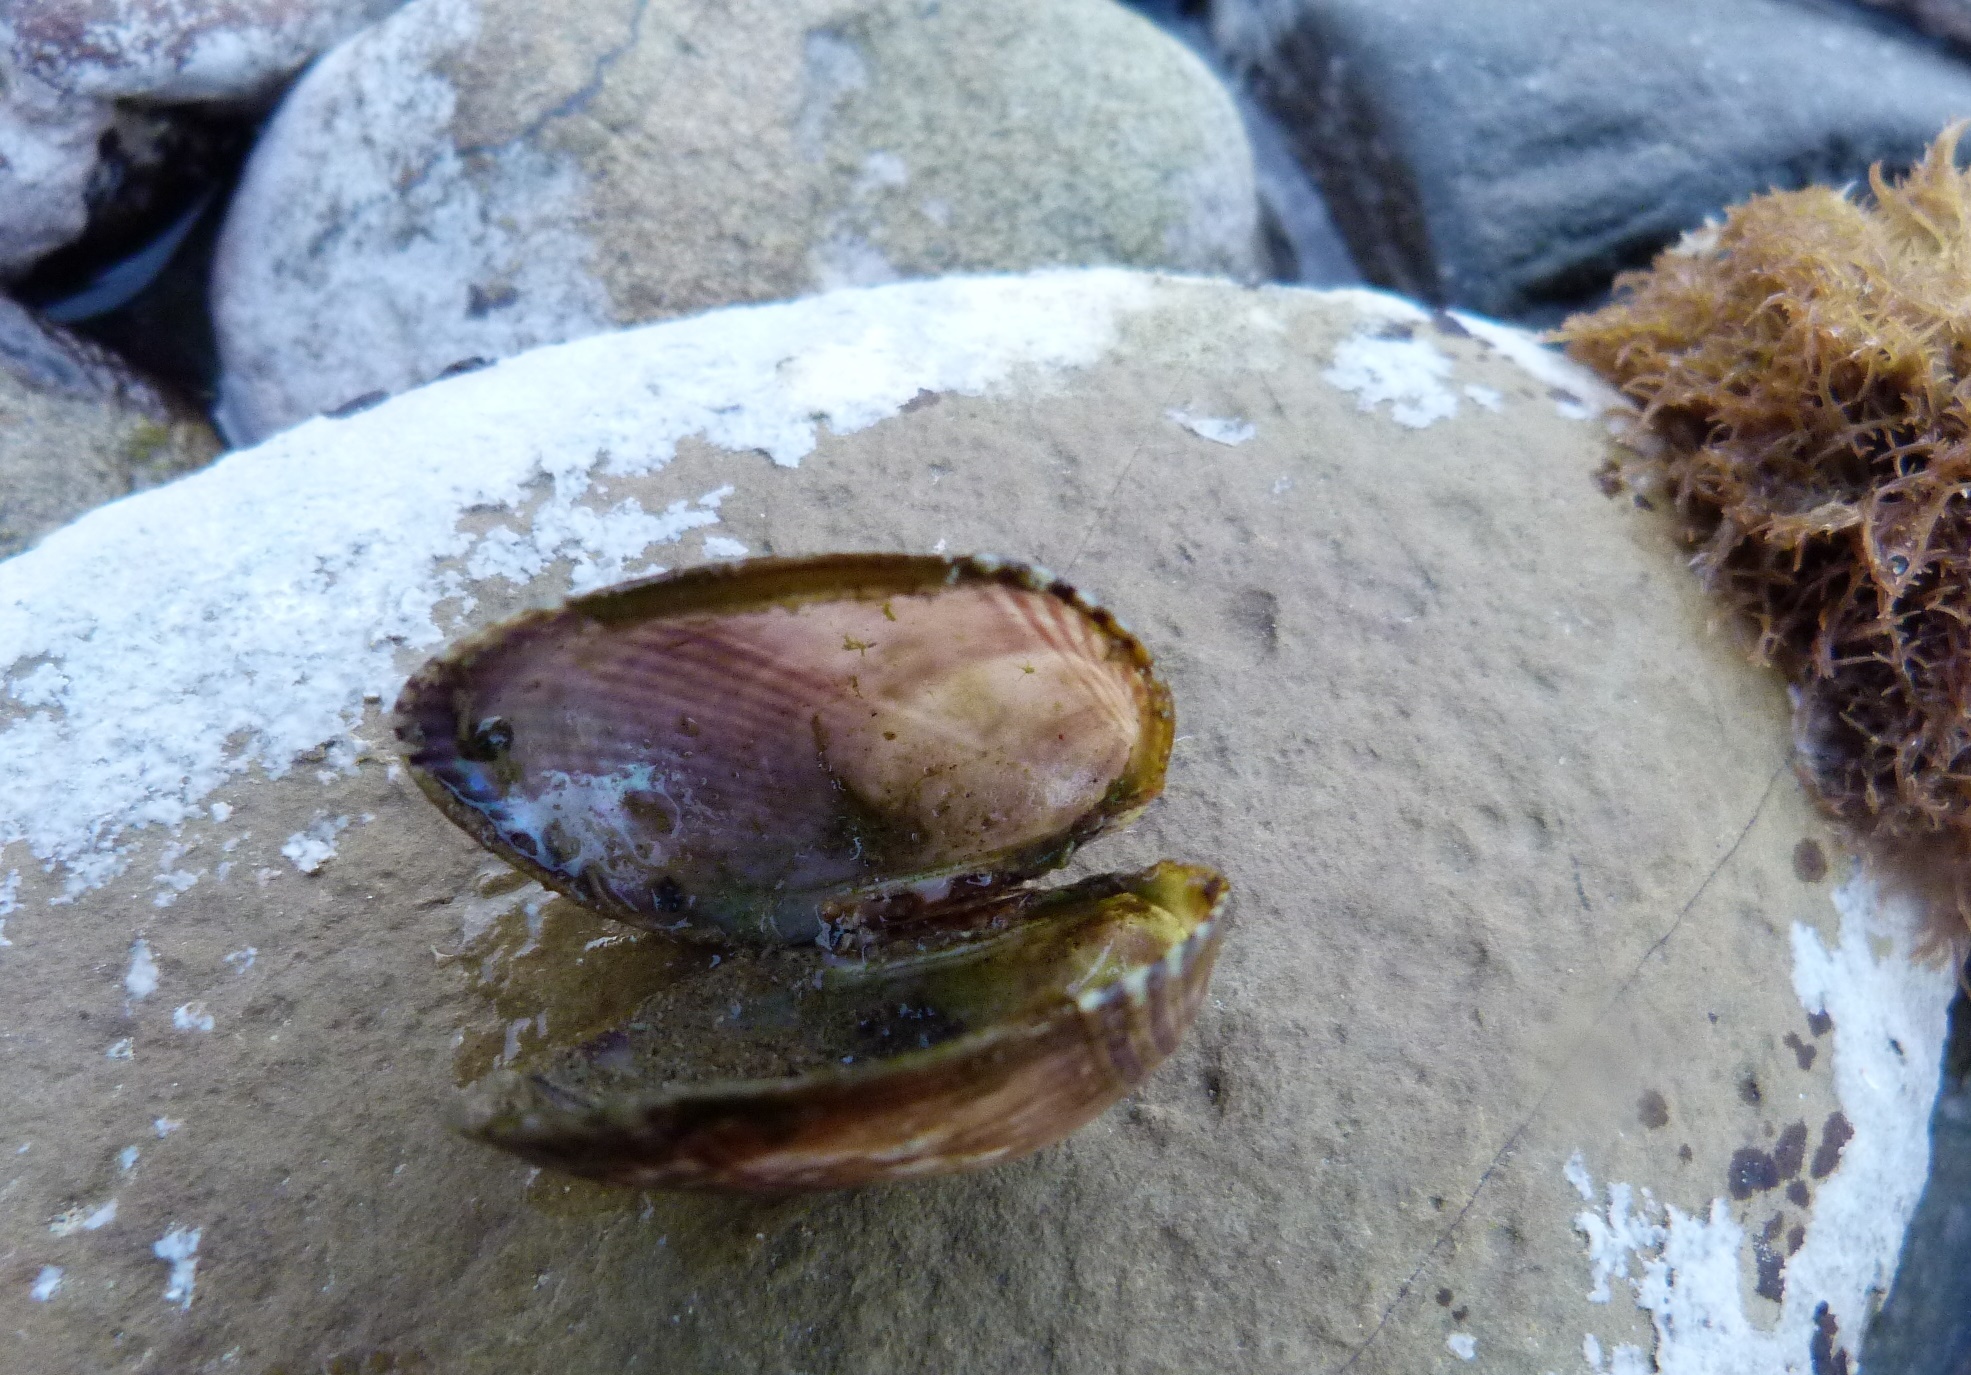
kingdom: Animalia
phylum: Mollusca
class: Bivalvia
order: Mytilida
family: Mytilidae
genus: Musculus
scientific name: Musculus impactus
